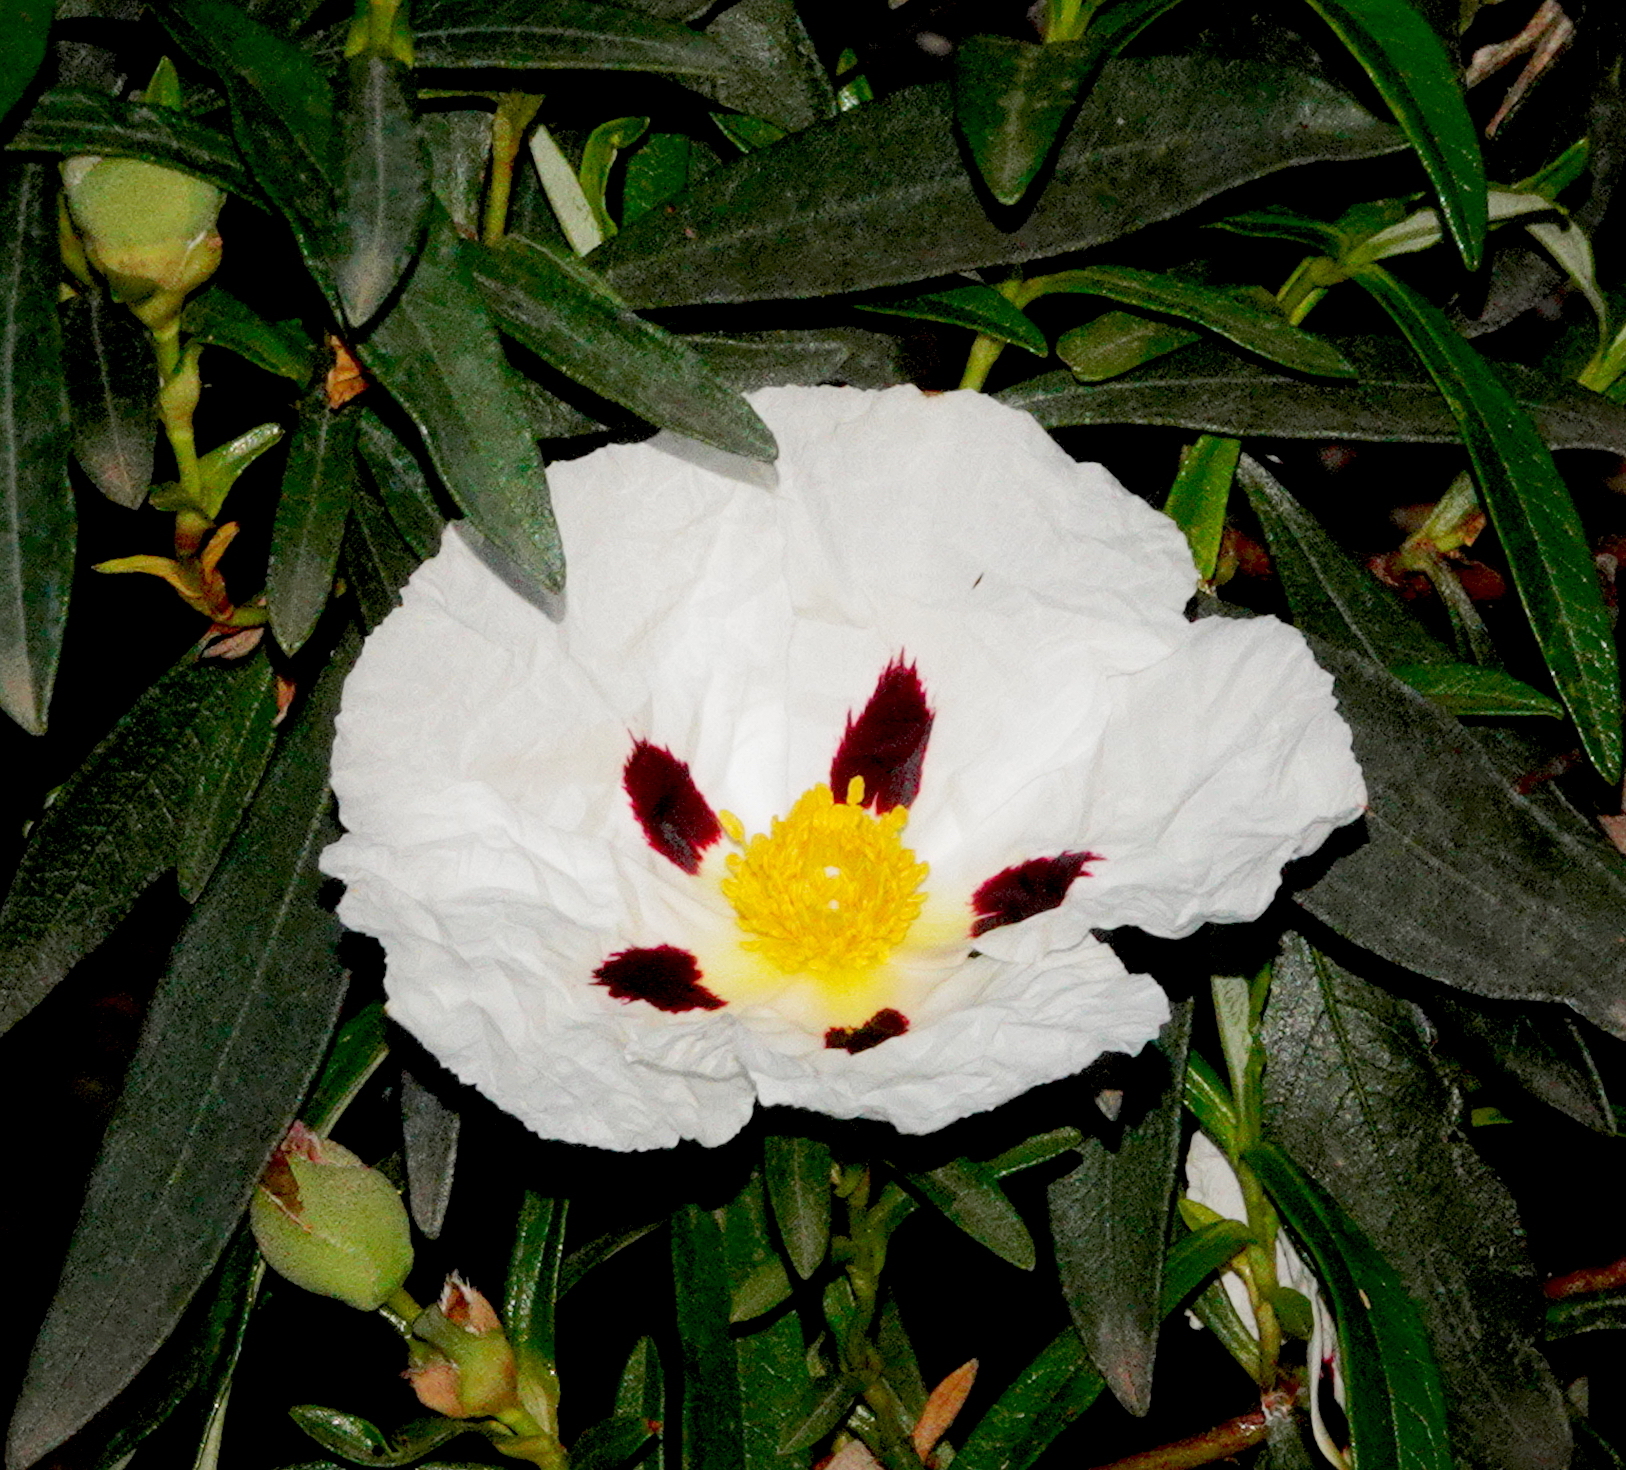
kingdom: Plantae
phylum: Tracheophyta
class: Magnoliopsida
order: Malvales
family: Cistaceae
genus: Cistus
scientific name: Cistus ladanifer
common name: Common gum cistus
